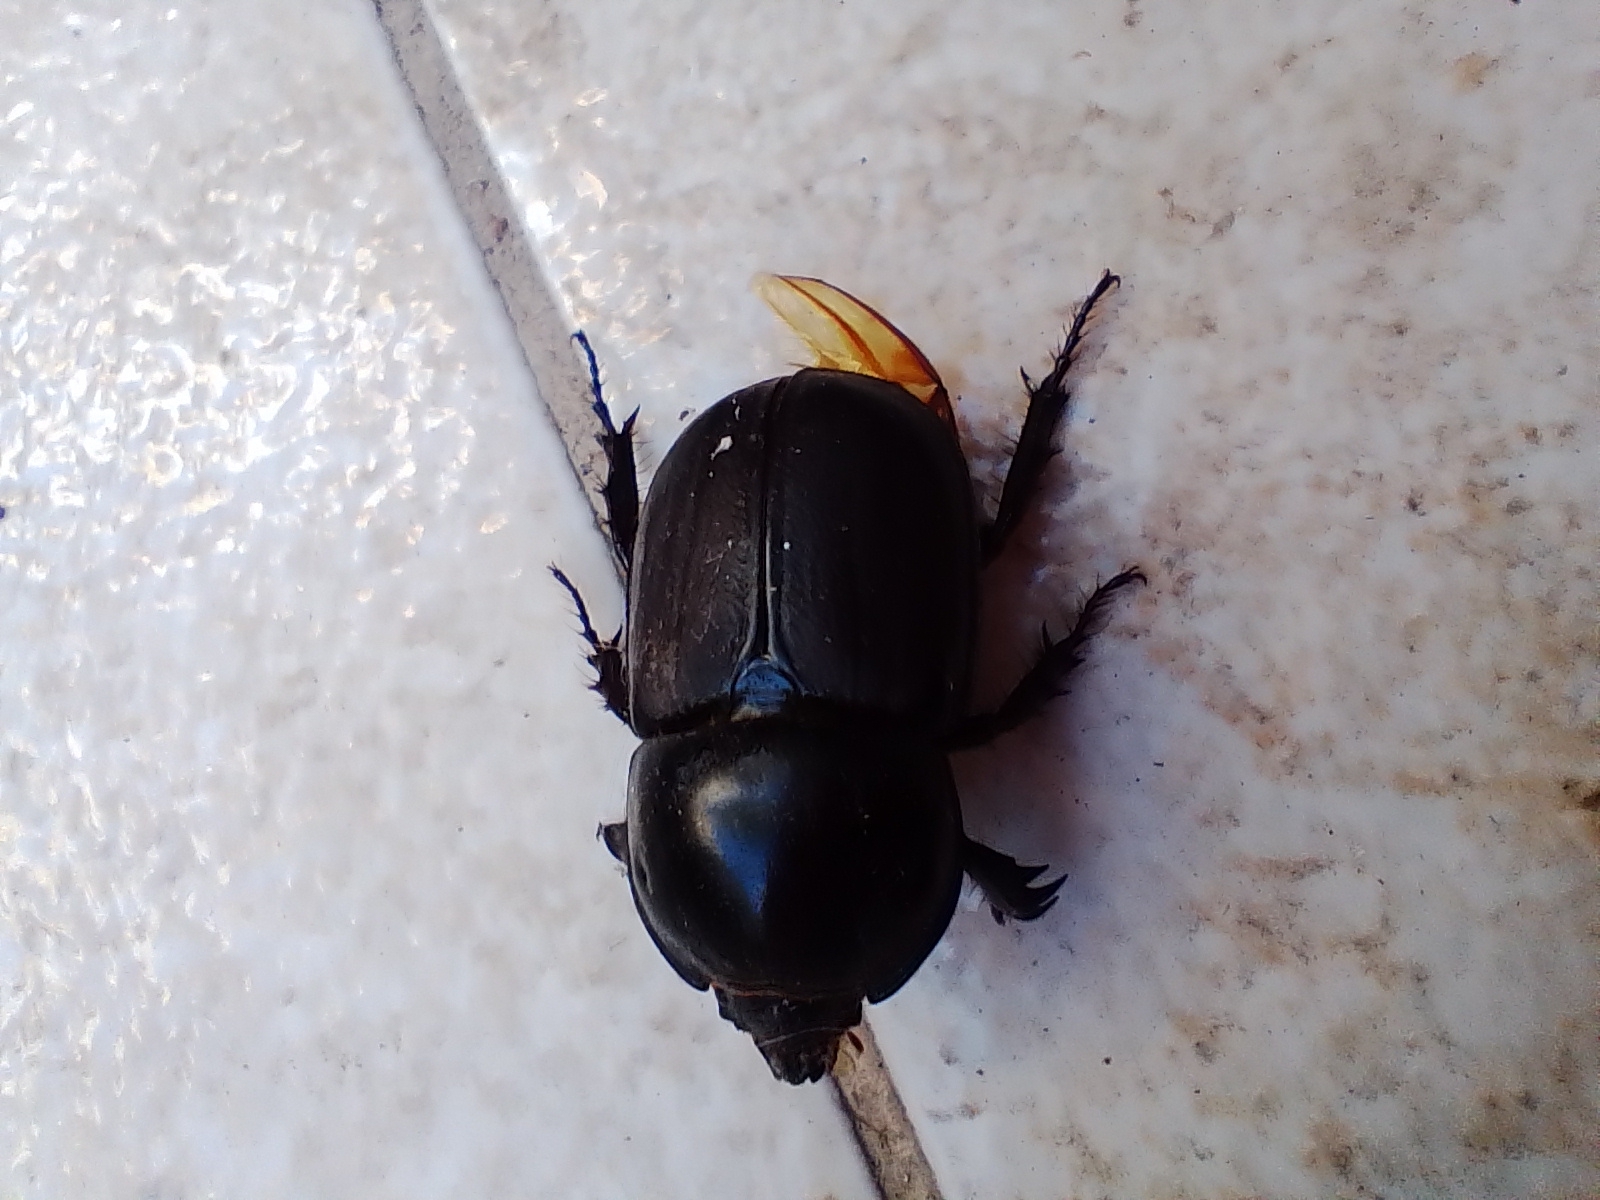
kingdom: Animalia
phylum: Arthropoda
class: Insecta
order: Coleoptera
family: Scarabaeidae
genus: Diloboderus
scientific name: Diloboderus abderus
